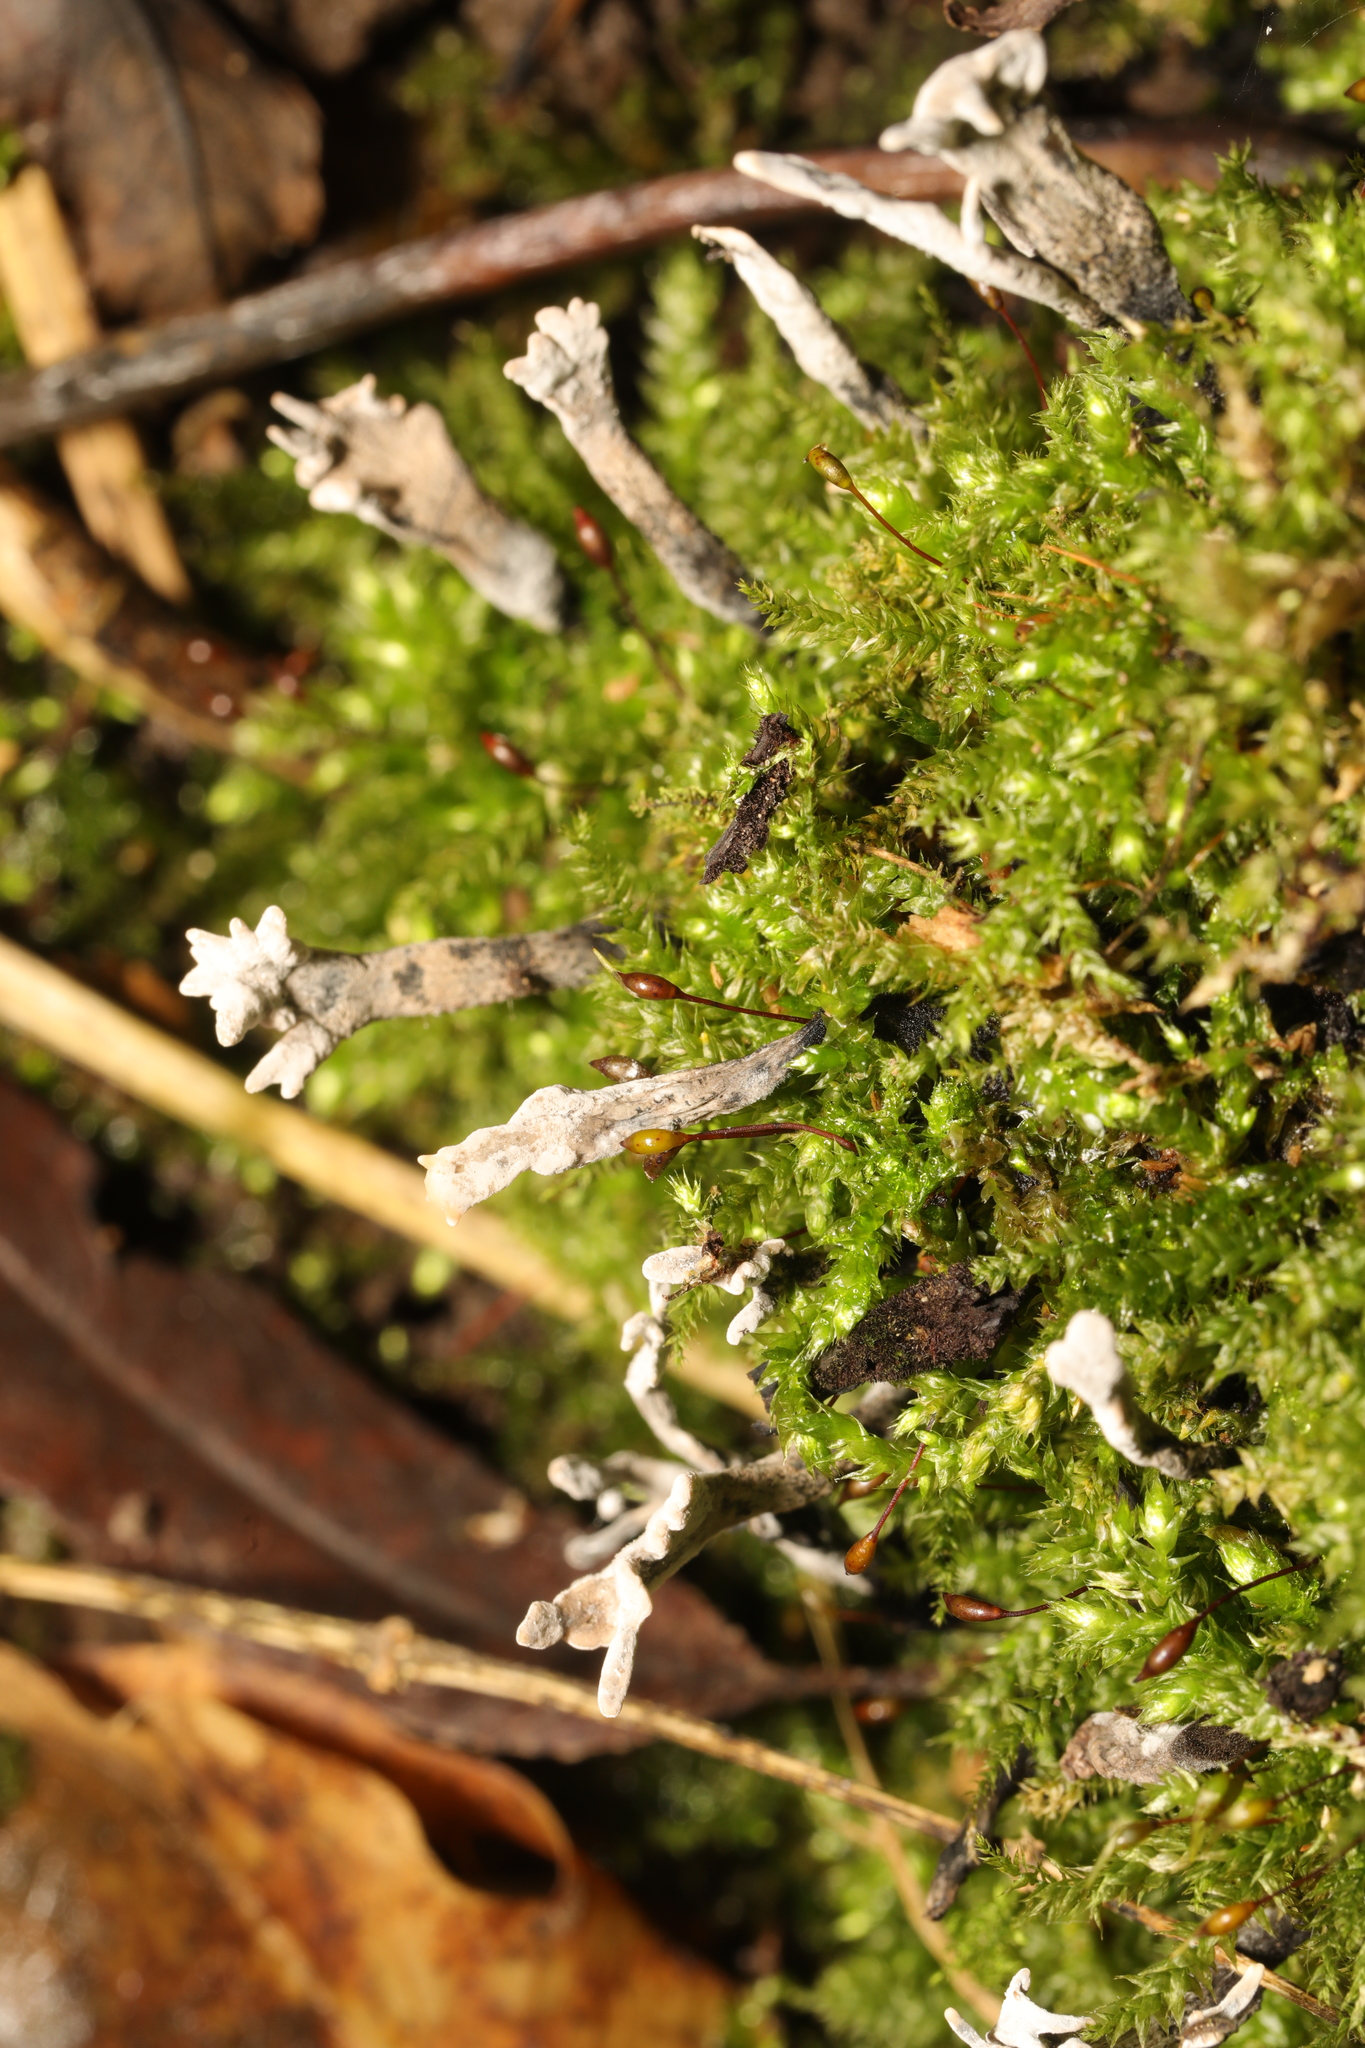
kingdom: Fungi
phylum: Ascomycota
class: Sordariomycetes
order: Xylariales
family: Xylariaceae
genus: Xylaria
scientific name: Xylaria hypoxylon
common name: Candle-snuff fungus
